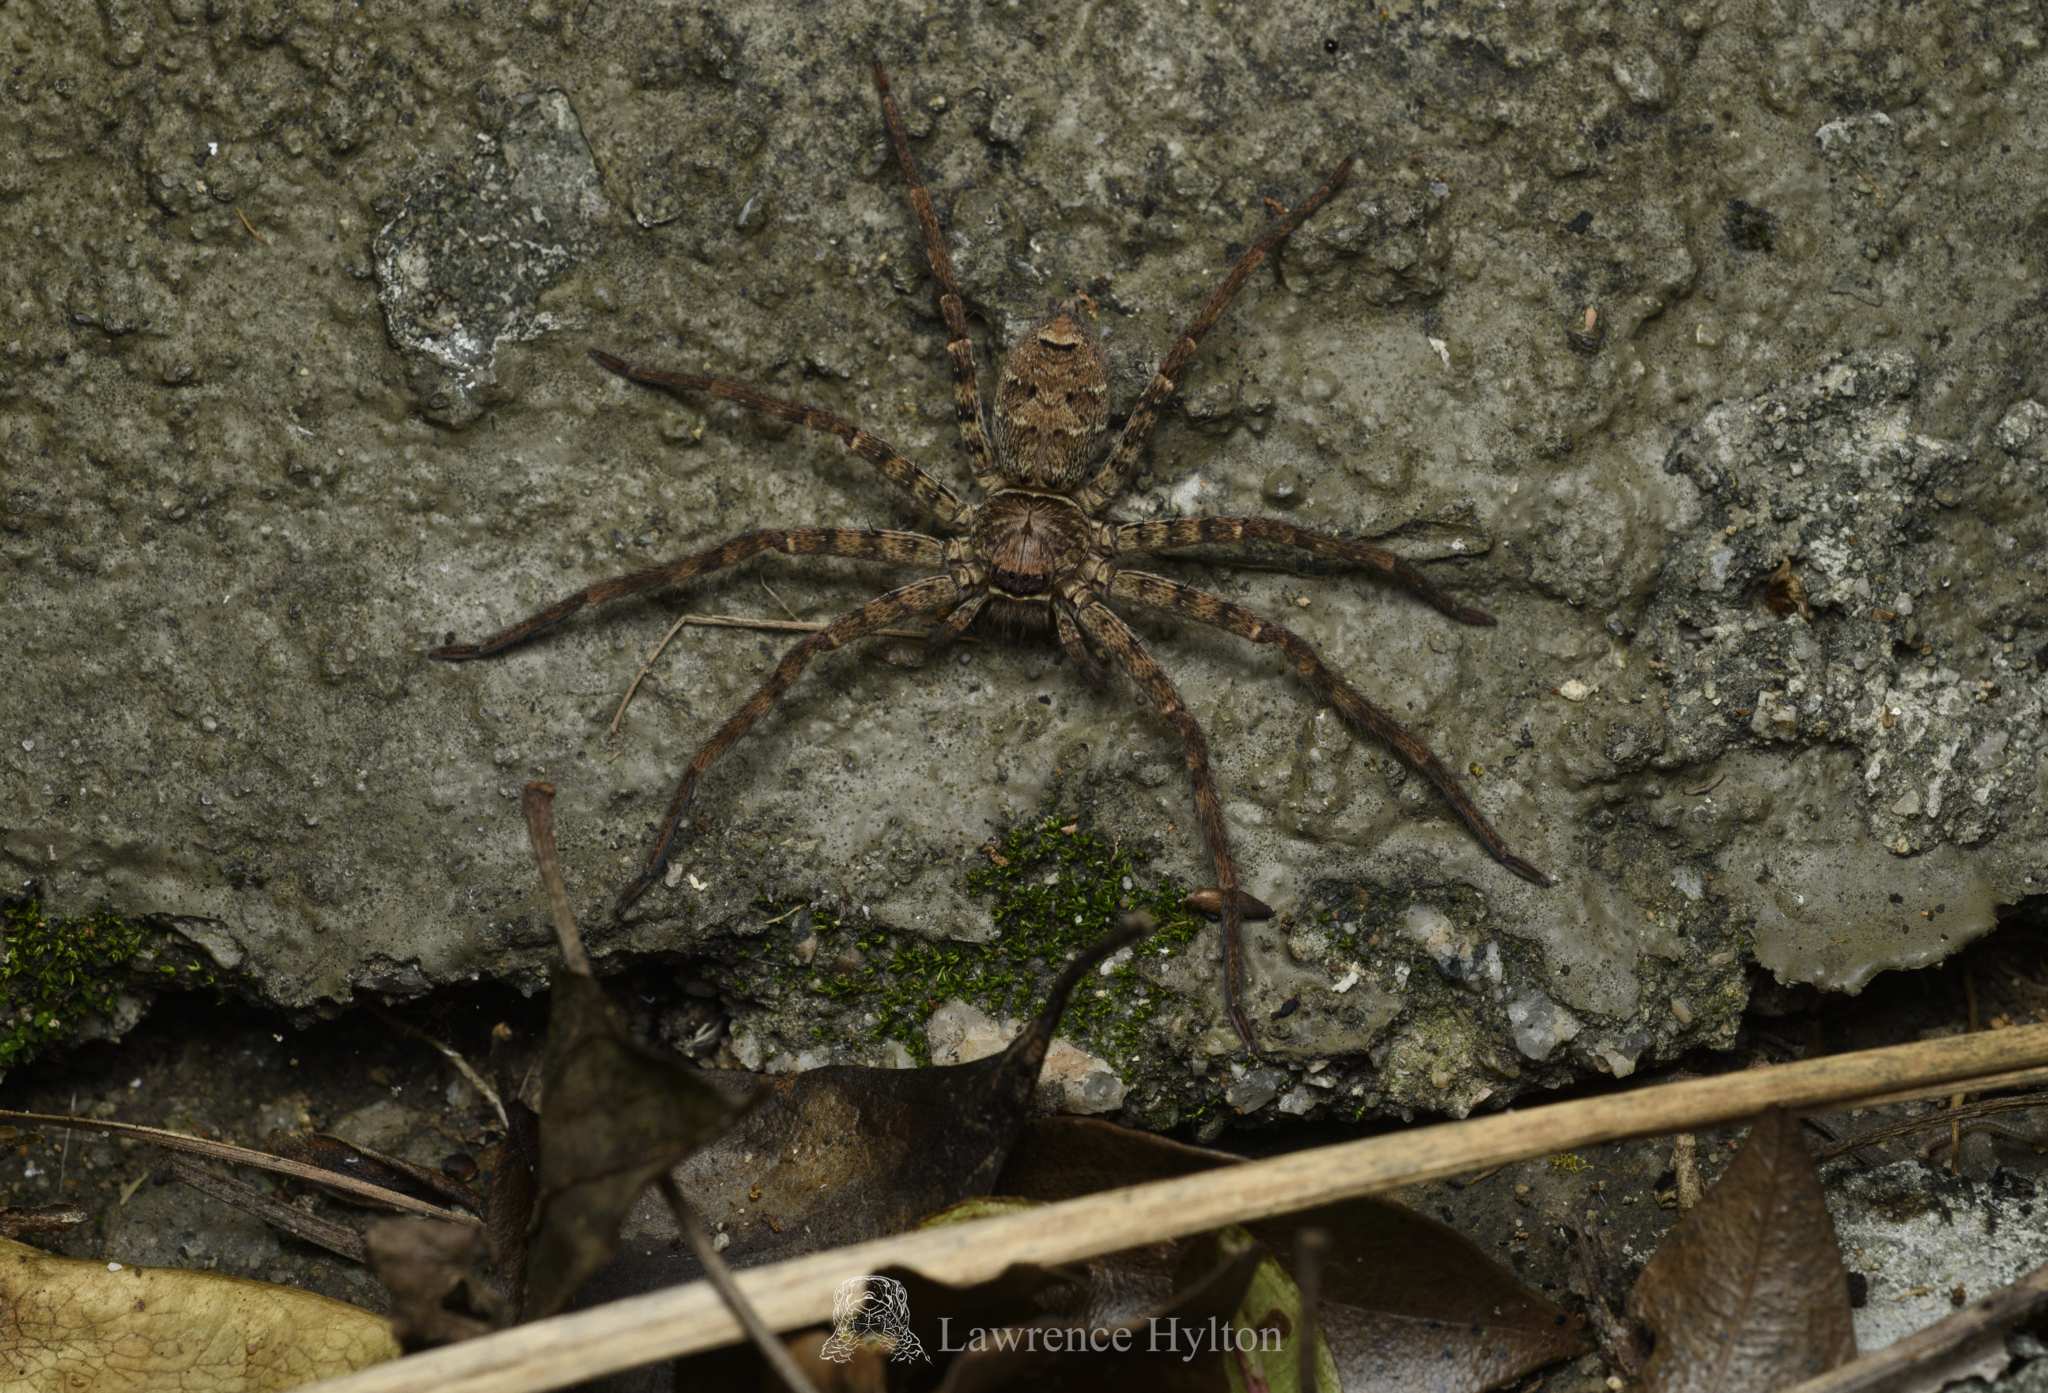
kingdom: Animalia
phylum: Arthropoda
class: Arachnida
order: Araneae
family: Sparassidae
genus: Heteropoda
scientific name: Heteropoda venatoria
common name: Huntsman spider
